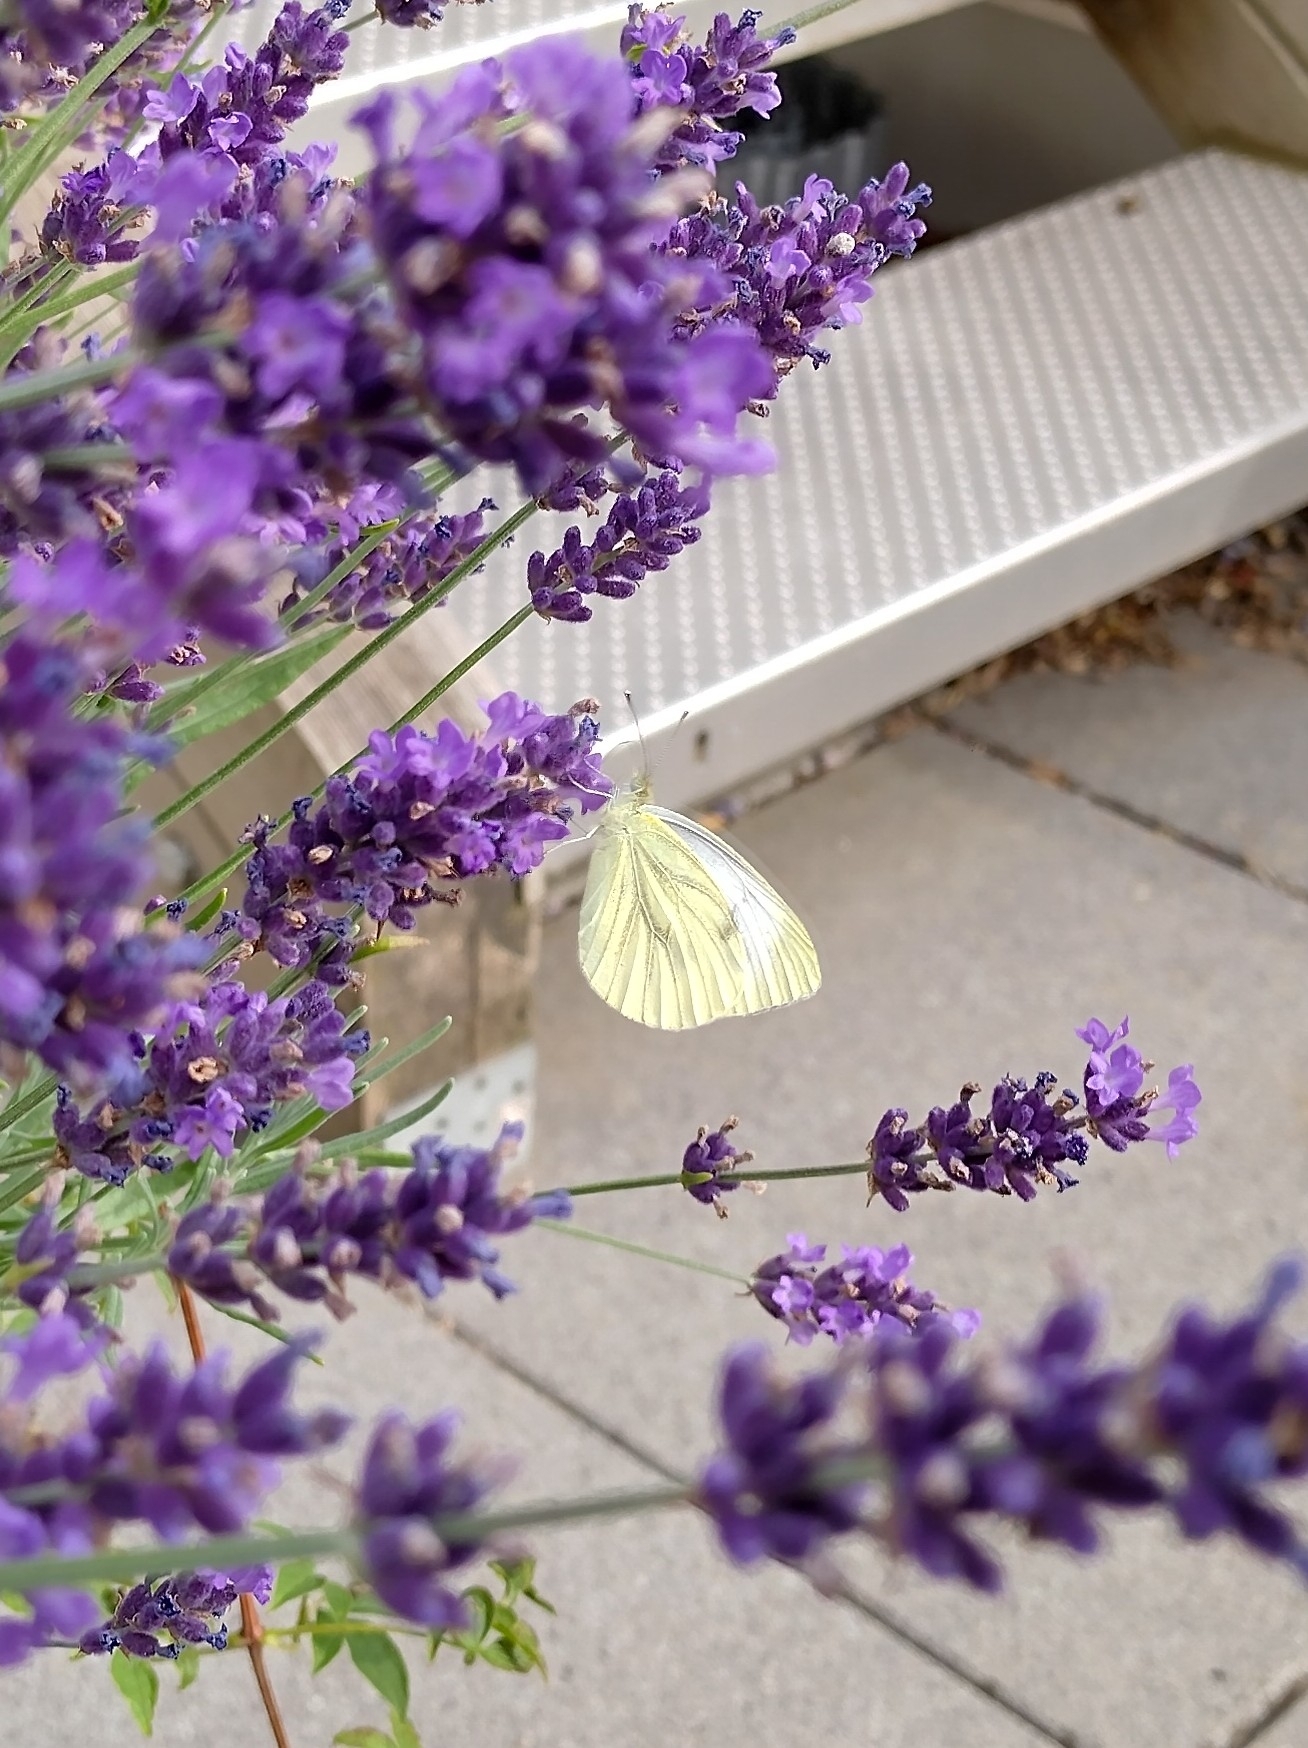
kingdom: Animalia
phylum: Arthropoda
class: Insecta
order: Lepidoptera
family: Pieridae
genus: Pieris
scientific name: Pieris napi
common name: Green-veined white
